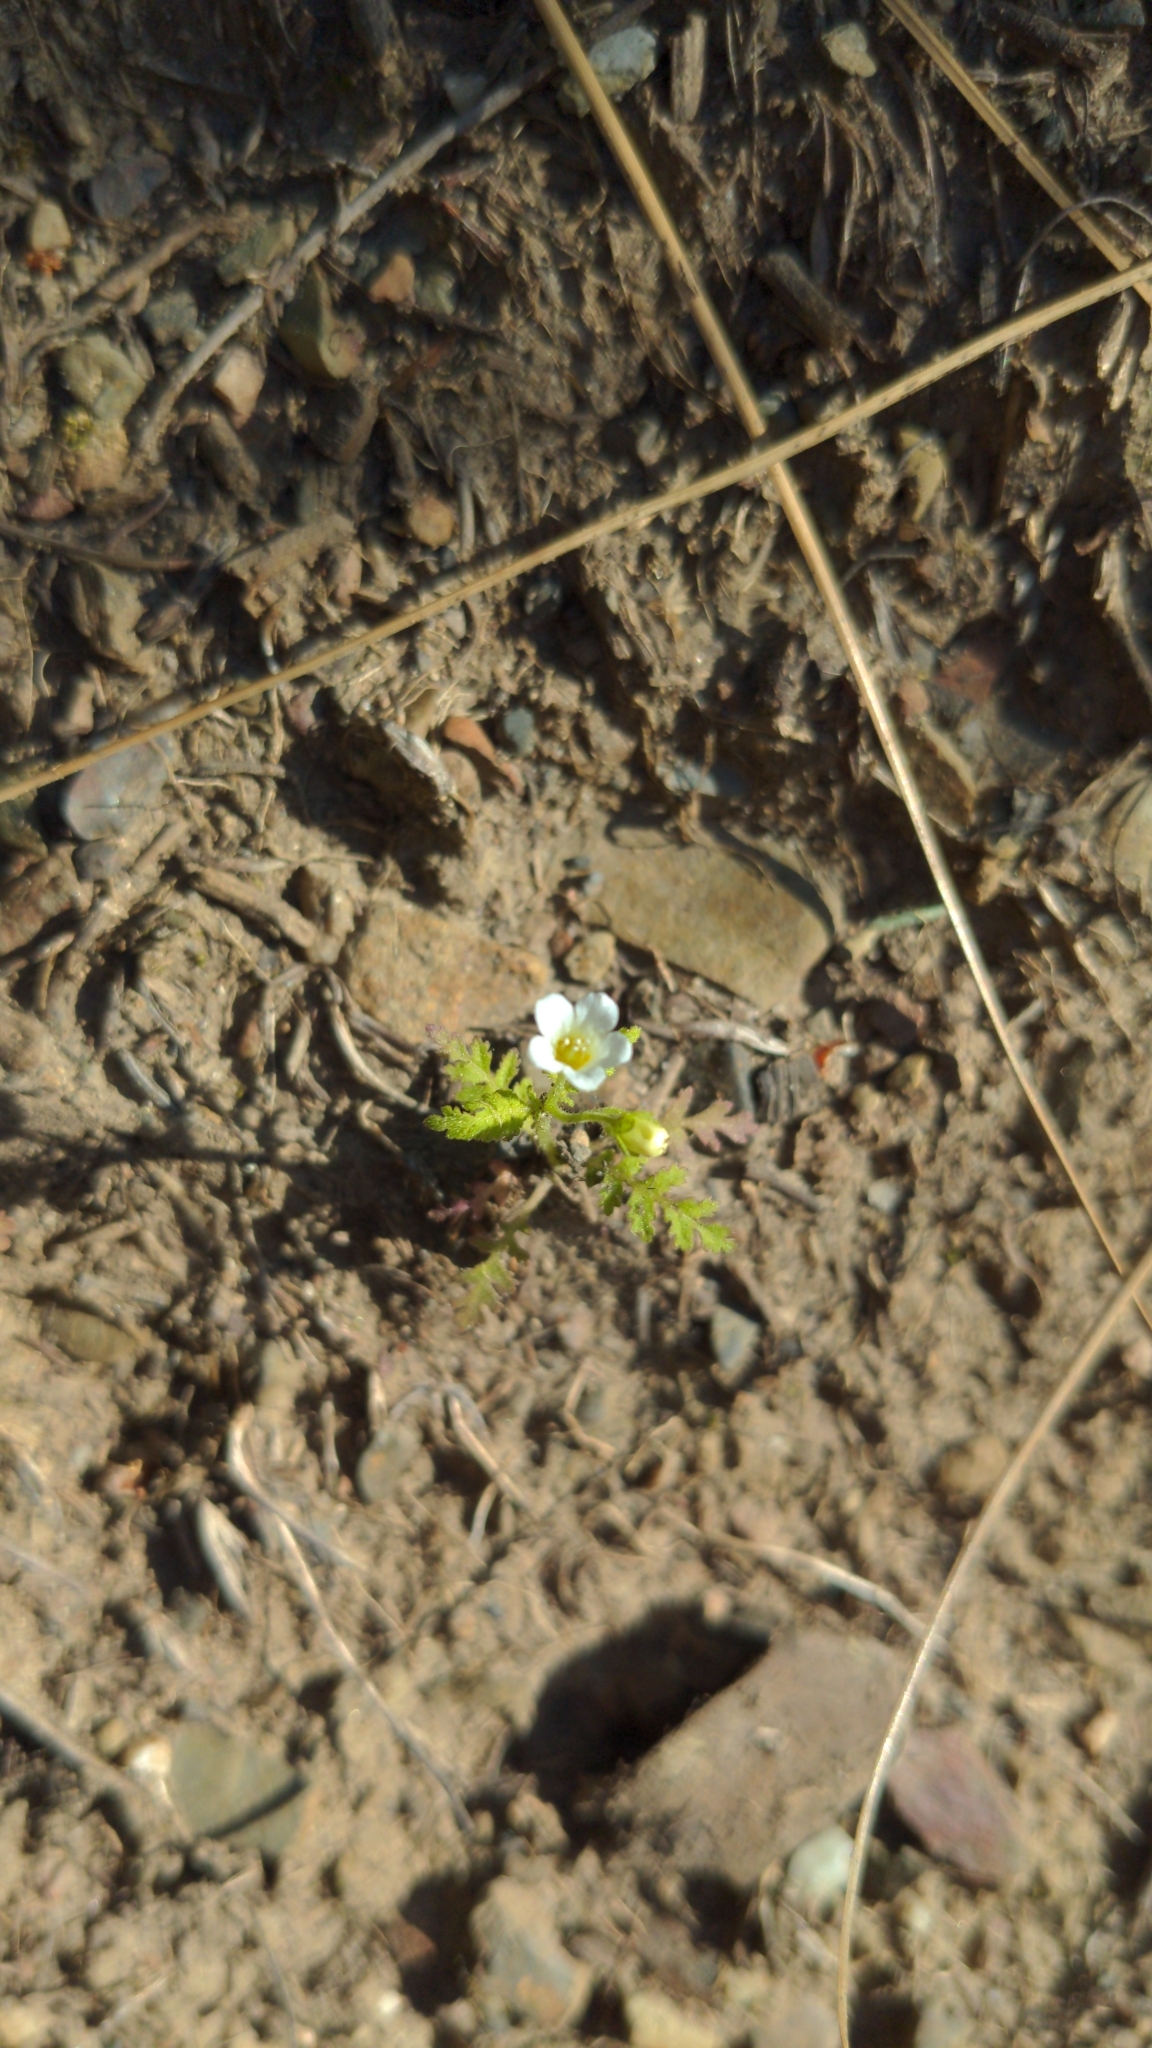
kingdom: Plantae
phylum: Tracheophyta
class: Magnoliopsida
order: Boraginales
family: Hydrophyllaceae
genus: Eucrypta
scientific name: Eucrypta chrysanthemifolia
